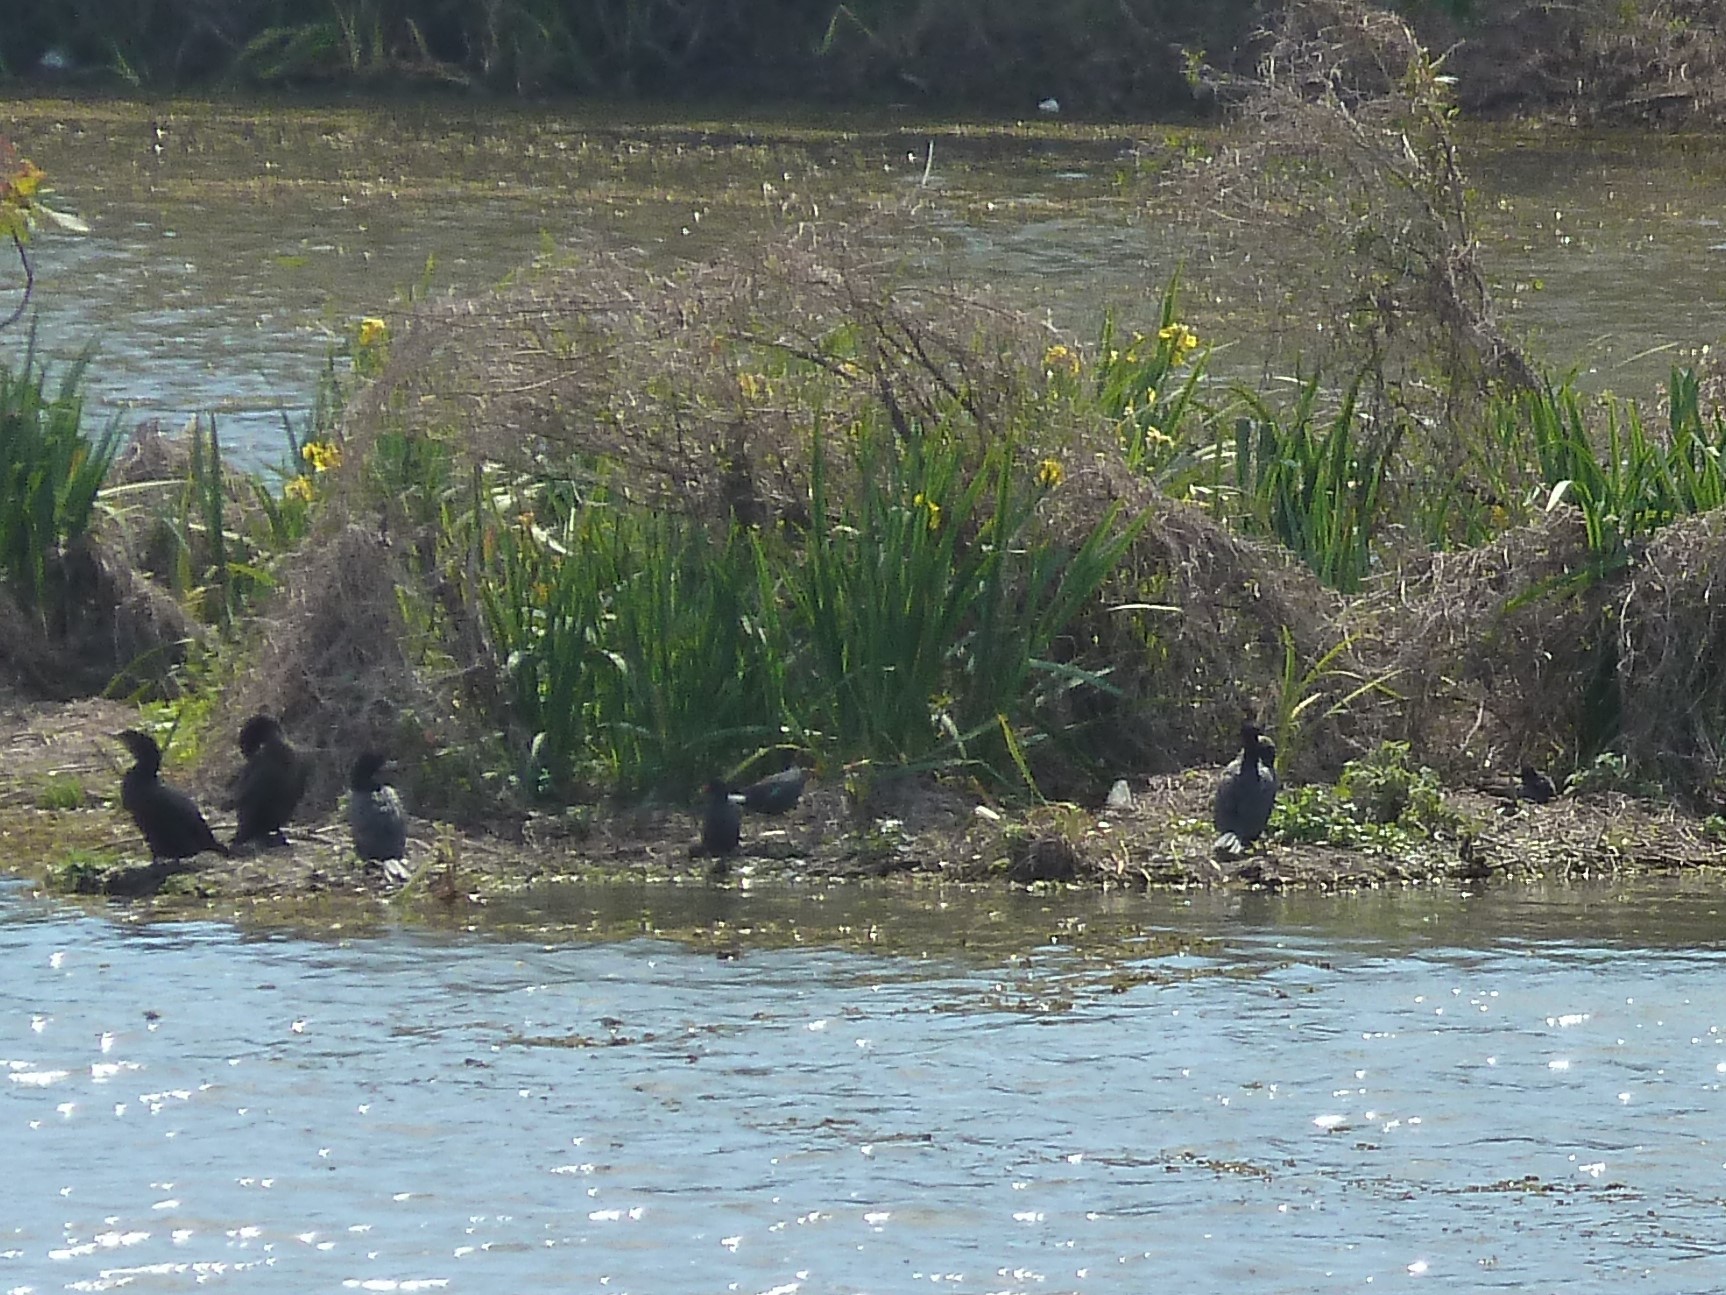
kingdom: Animalia
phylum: Chordata
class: Aves
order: Suliformes
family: Phalacrocoracidae
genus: Phalacrocorax
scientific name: Phalacrocorax brasilianus
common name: Neotropic cormorant
